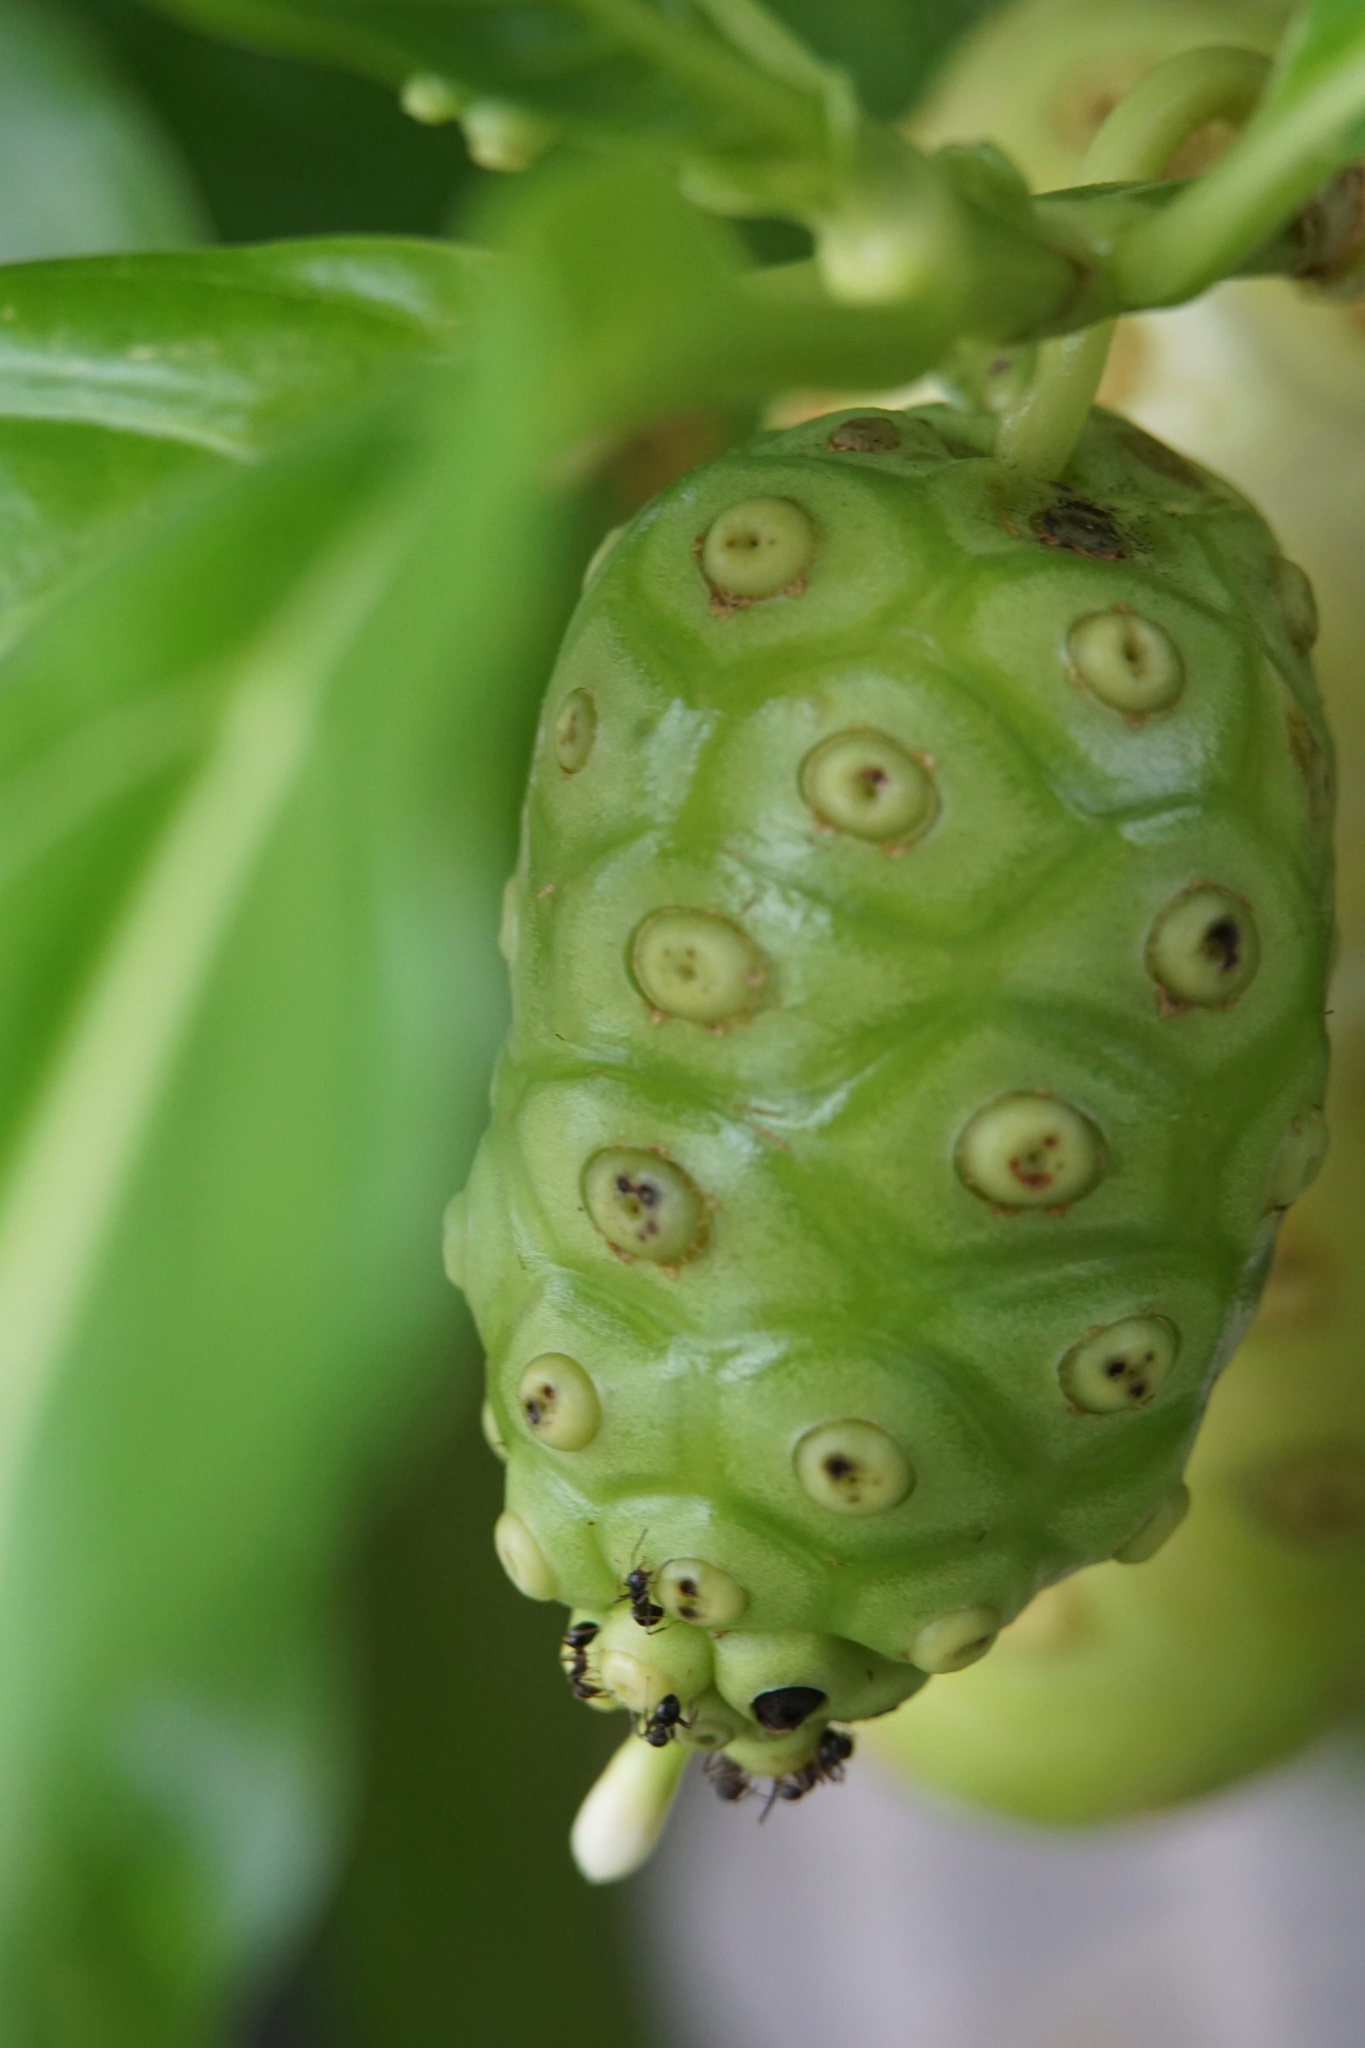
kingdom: Plantae
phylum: Tracheophyta
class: Magnoliopsida
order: Gentianales
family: Rubiaceae
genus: Morinda
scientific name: Morinda citrifolia
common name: Indian-mulberry
